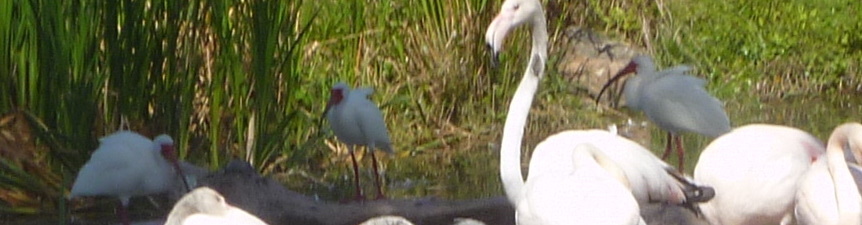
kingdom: Animalia
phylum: Chordata
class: Aves
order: Pelecaniformes
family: Threskiornithidae
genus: Eudocimus
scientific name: Eudocimus albus
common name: White ibis
